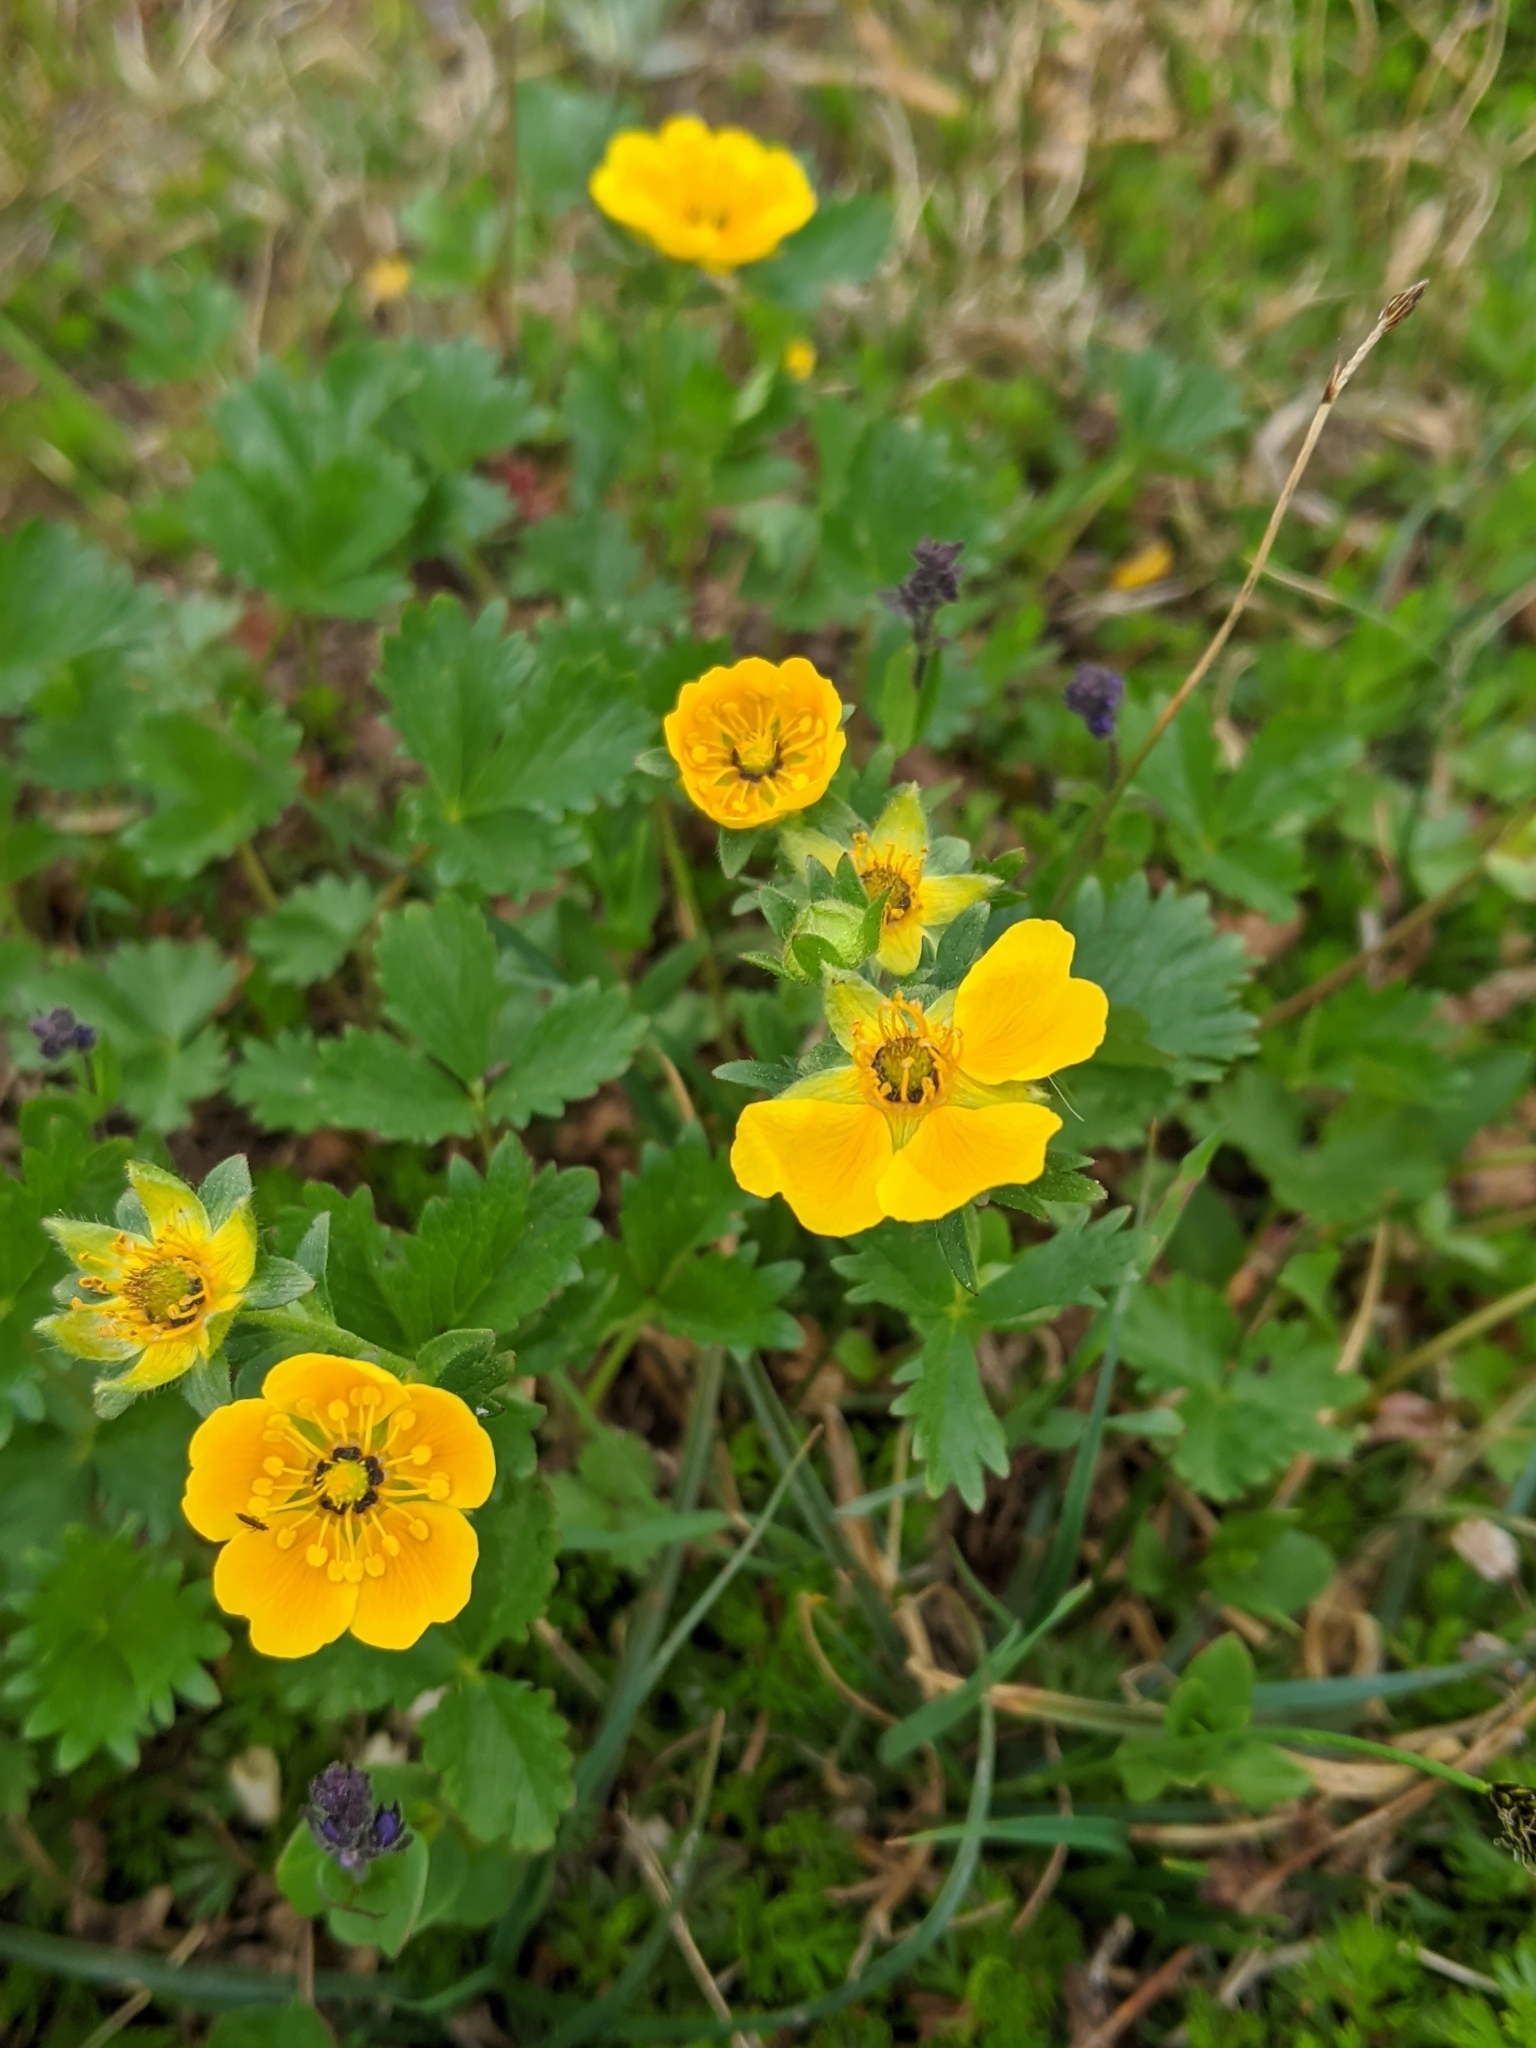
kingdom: Plantae
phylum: Tracheophyta
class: Magnoliopsida
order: Rosales
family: Rosaceae
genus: Potentilla
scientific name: Potentilla flabellifolia
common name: Mount rainier cinquefoil
